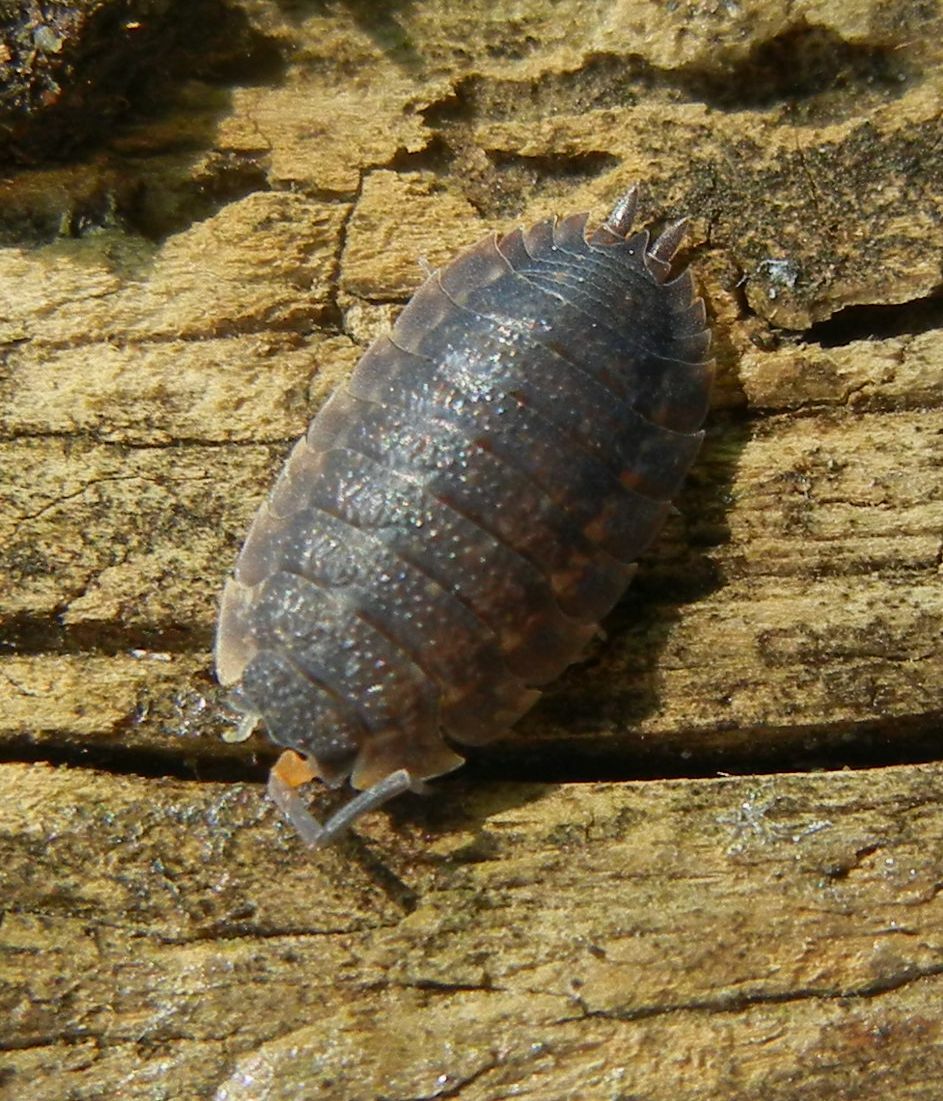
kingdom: Animalia
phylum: Arthropoda
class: Malacostraca
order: Isopoda
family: Porcellionidae
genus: Porcellio
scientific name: Porcellio scaber
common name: Common rough woodlouse
